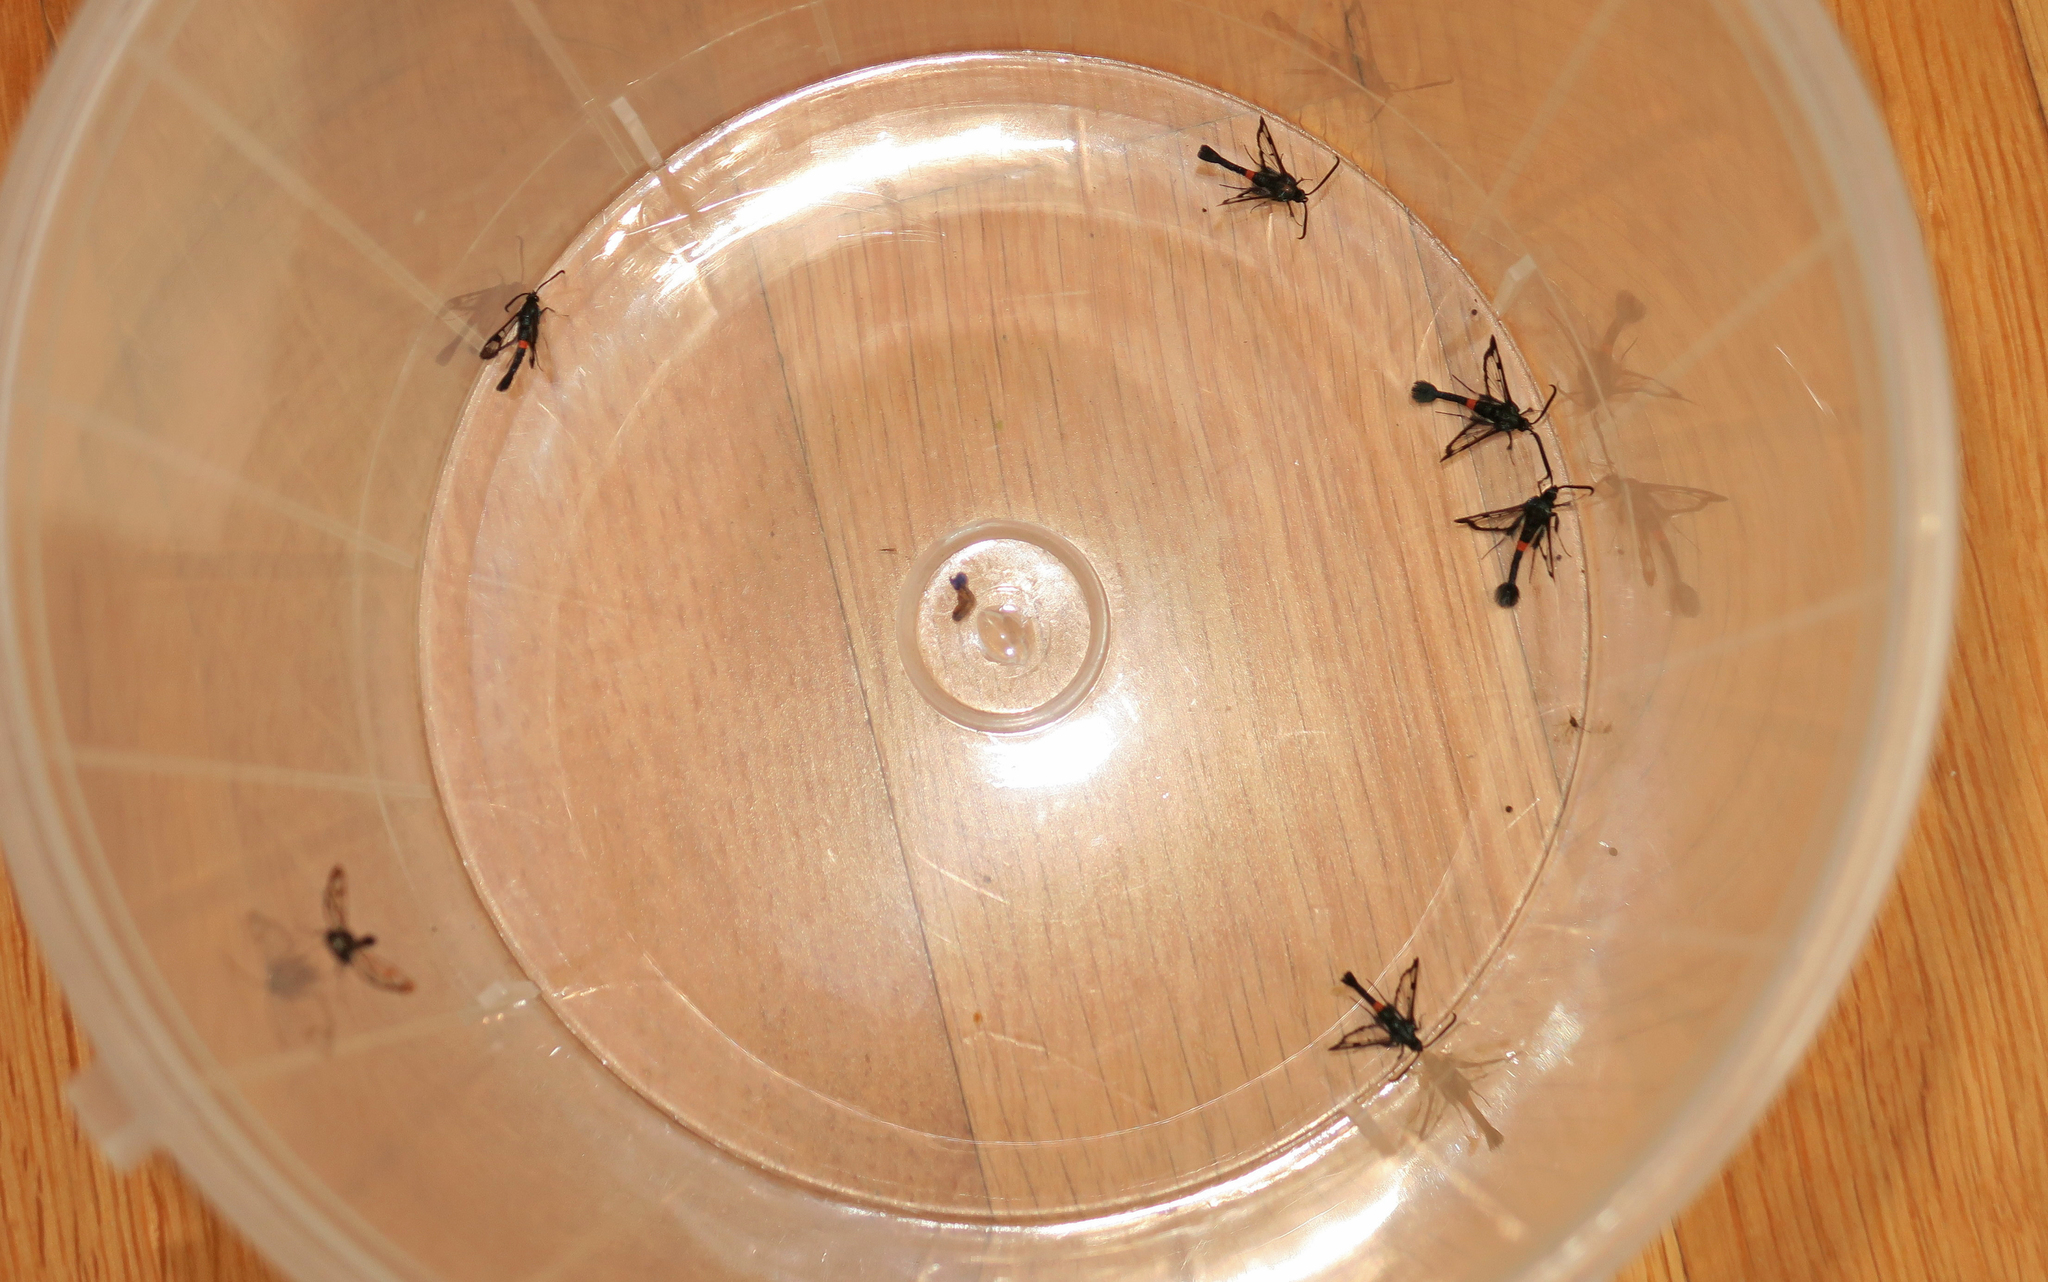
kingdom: Animalia
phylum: Arthropoda
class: Insecta
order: Lepidoptera
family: Sesiidae
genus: Synanthedon
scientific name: Synanthedon myopaeformis
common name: Red-belted clearwing
